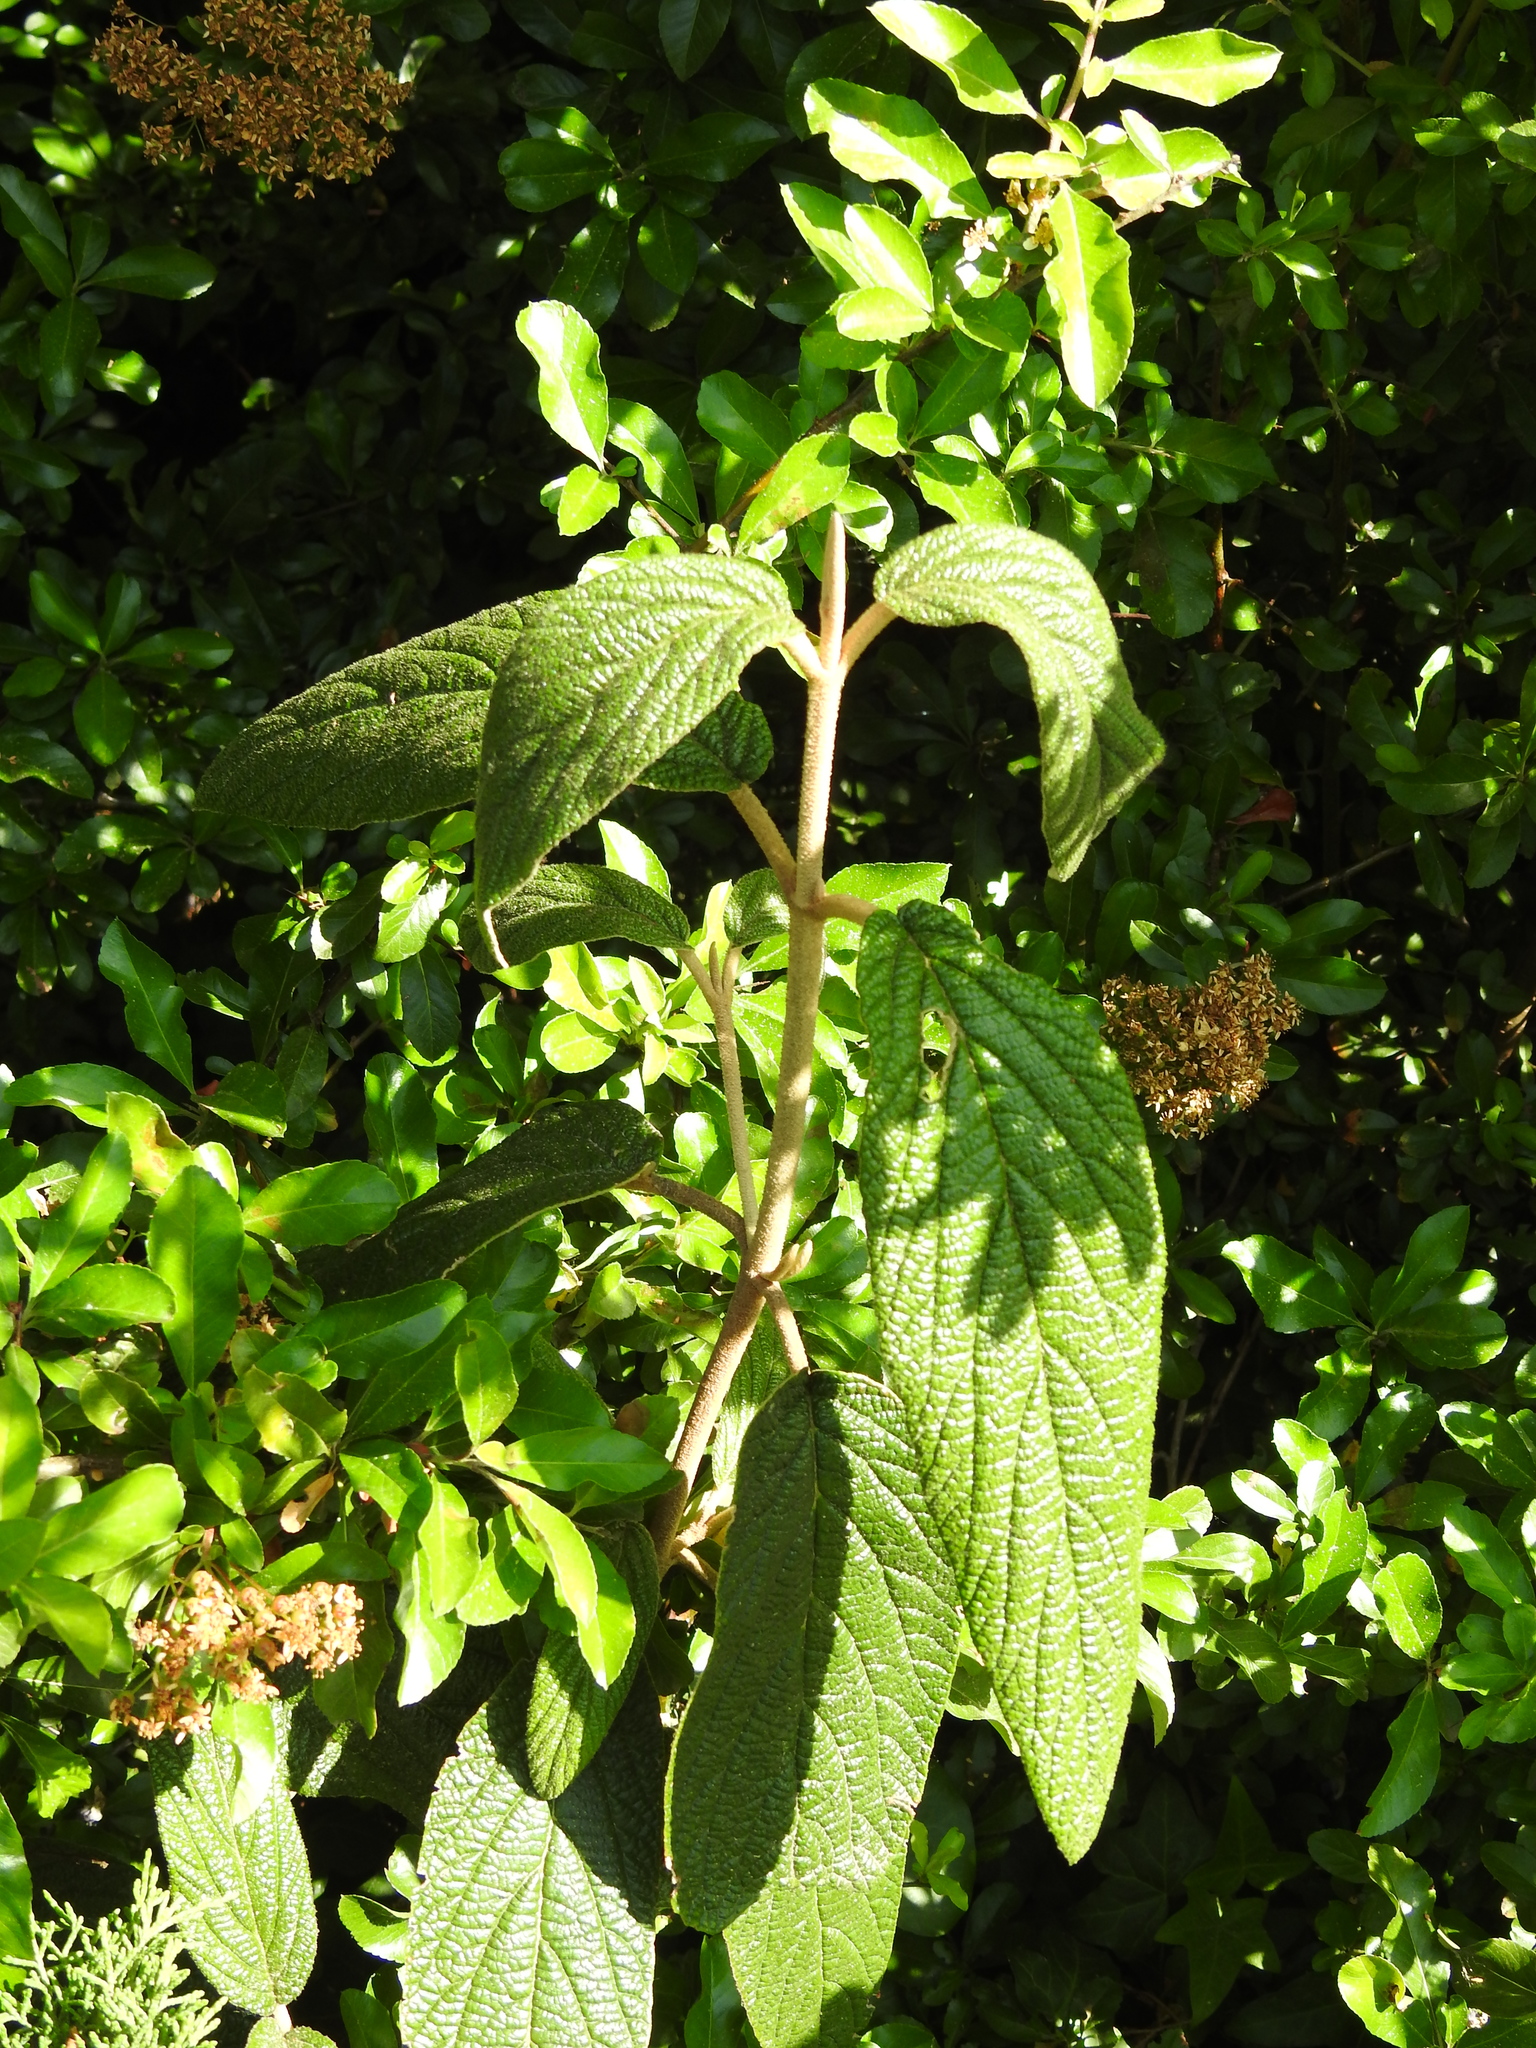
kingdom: Plantae
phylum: Tracheophyta
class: Magnoliopsida
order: Dipsacales
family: Viburnaceae
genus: Viburnum
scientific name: Viburnum rhytidophyllum
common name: Wrinkled viburnum
